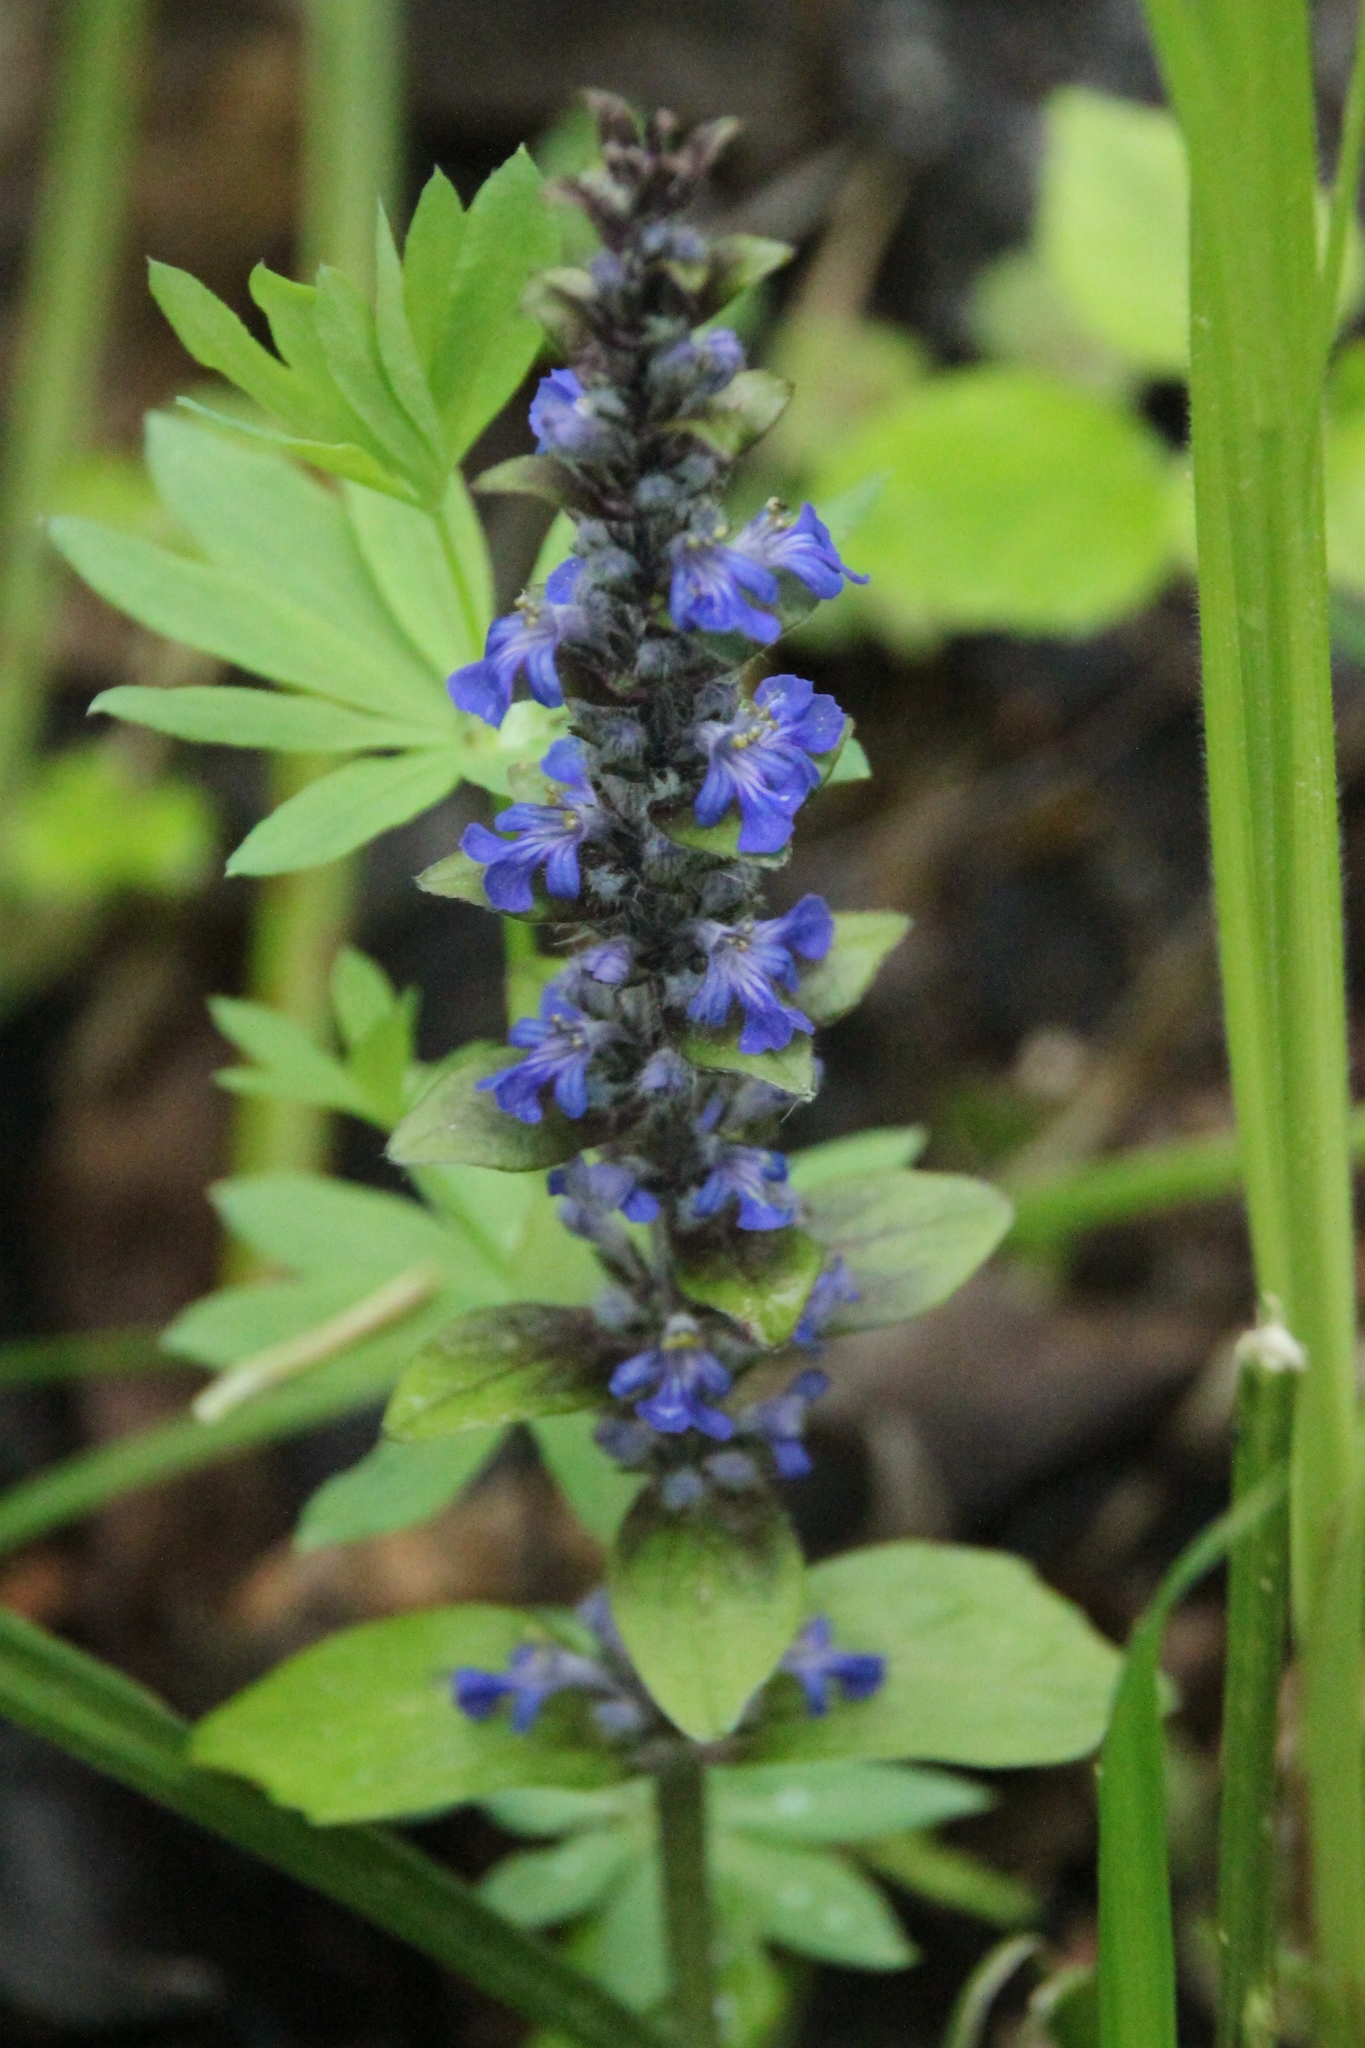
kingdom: Plantae
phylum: Tracheophyta
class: Magnoliopsida
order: Lamiales
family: Lamiaceae
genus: Ajuga
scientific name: Ajuga reptans
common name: Bugle
